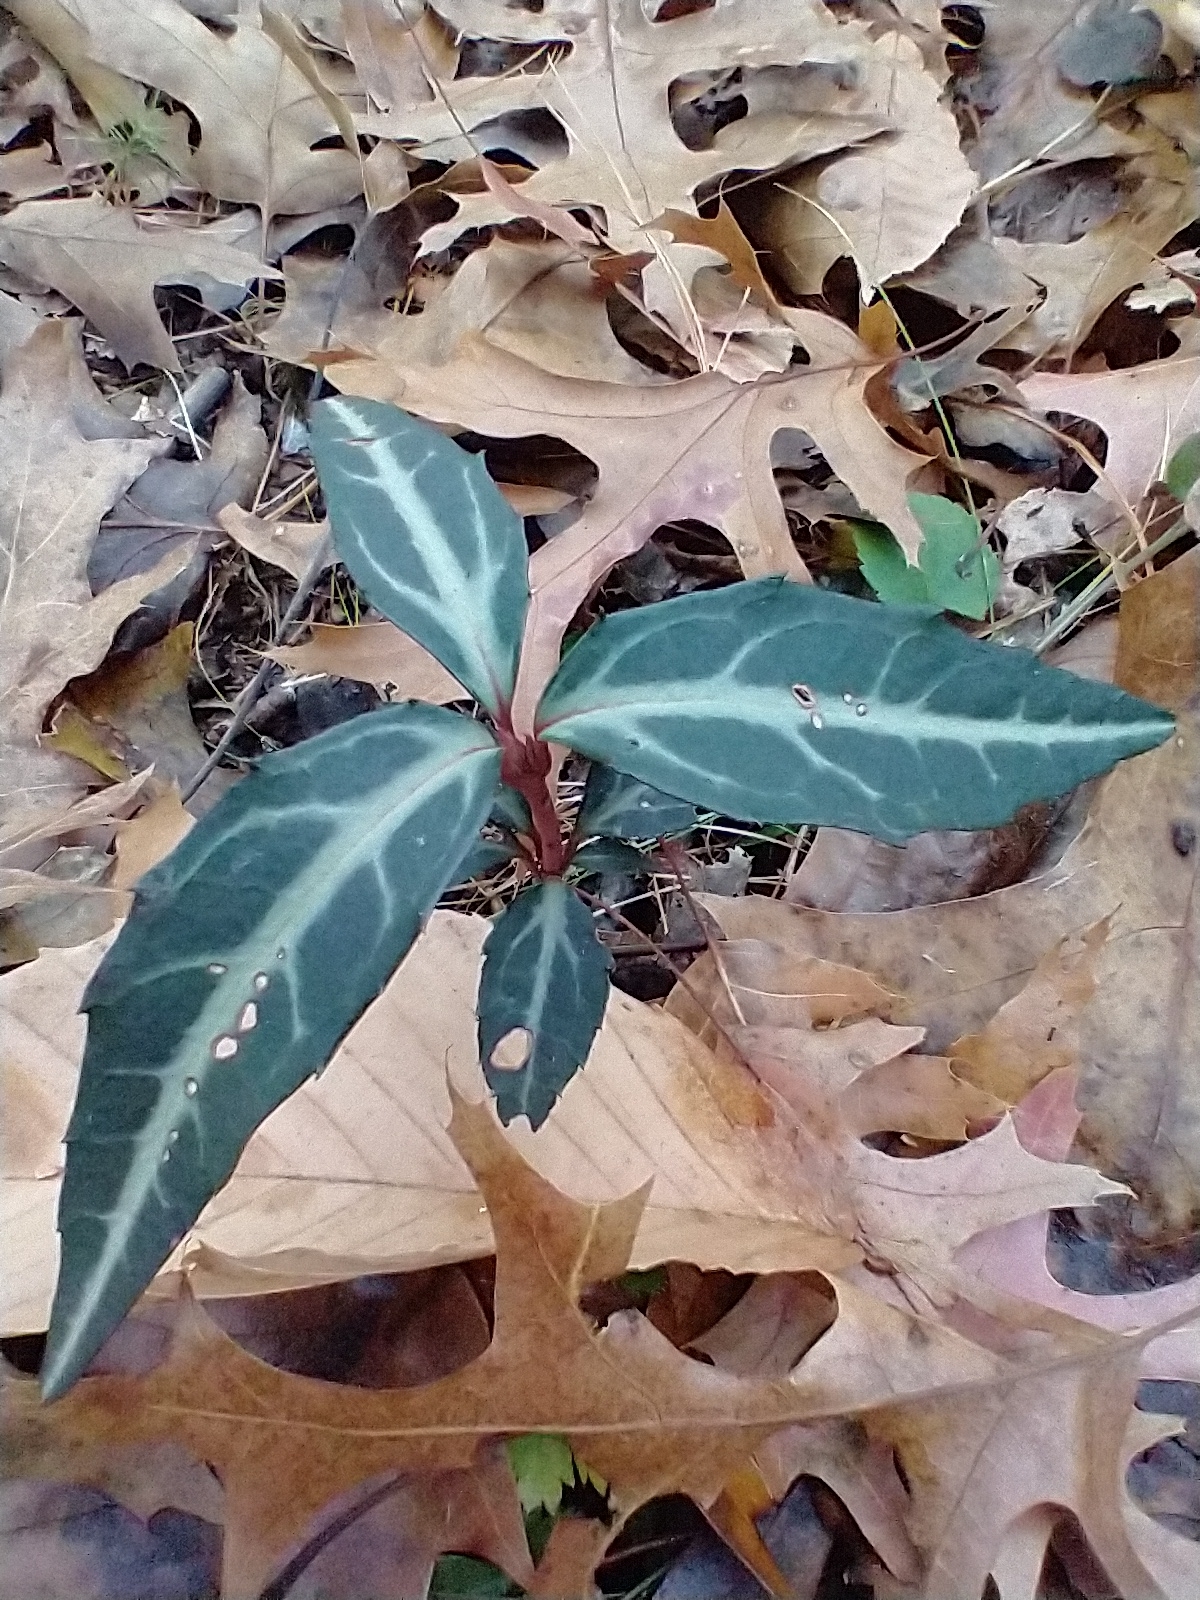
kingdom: Plantae
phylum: Tracheophyta
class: Magnoliopsida
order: Ericales
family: Ericaceae
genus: Chimaphila
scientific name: Chimaphila maculata
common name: Spotted pipsissewa
